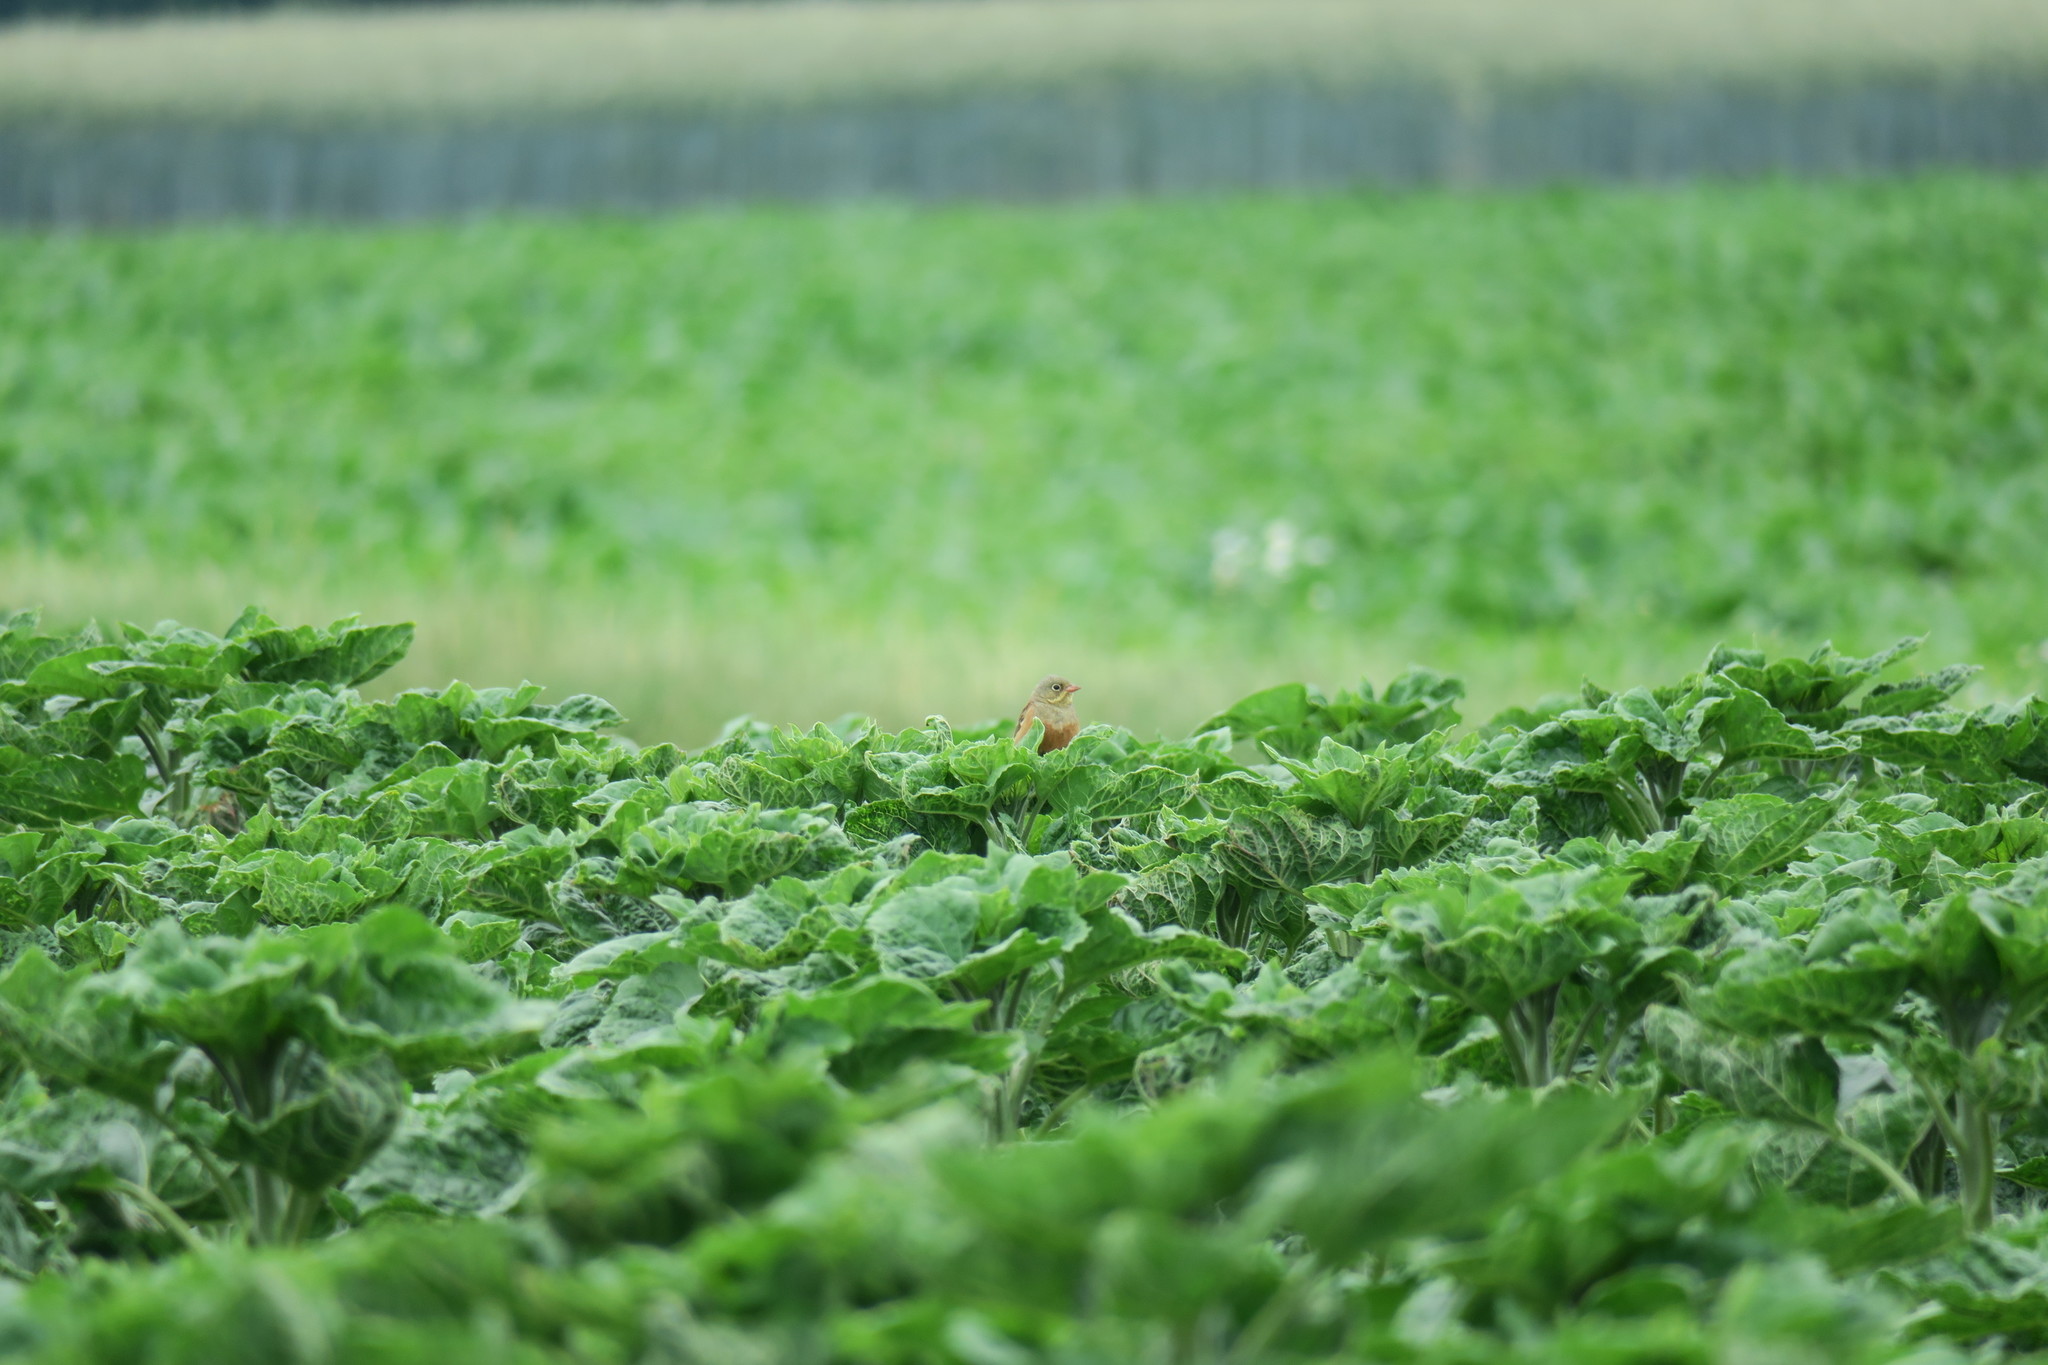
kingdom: Animalia
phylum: Chordata
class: Aves
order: Passeriformes
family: Emberizidae
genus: Emberiza
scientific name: Emberiza hortulana
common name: Ortolan bunting
